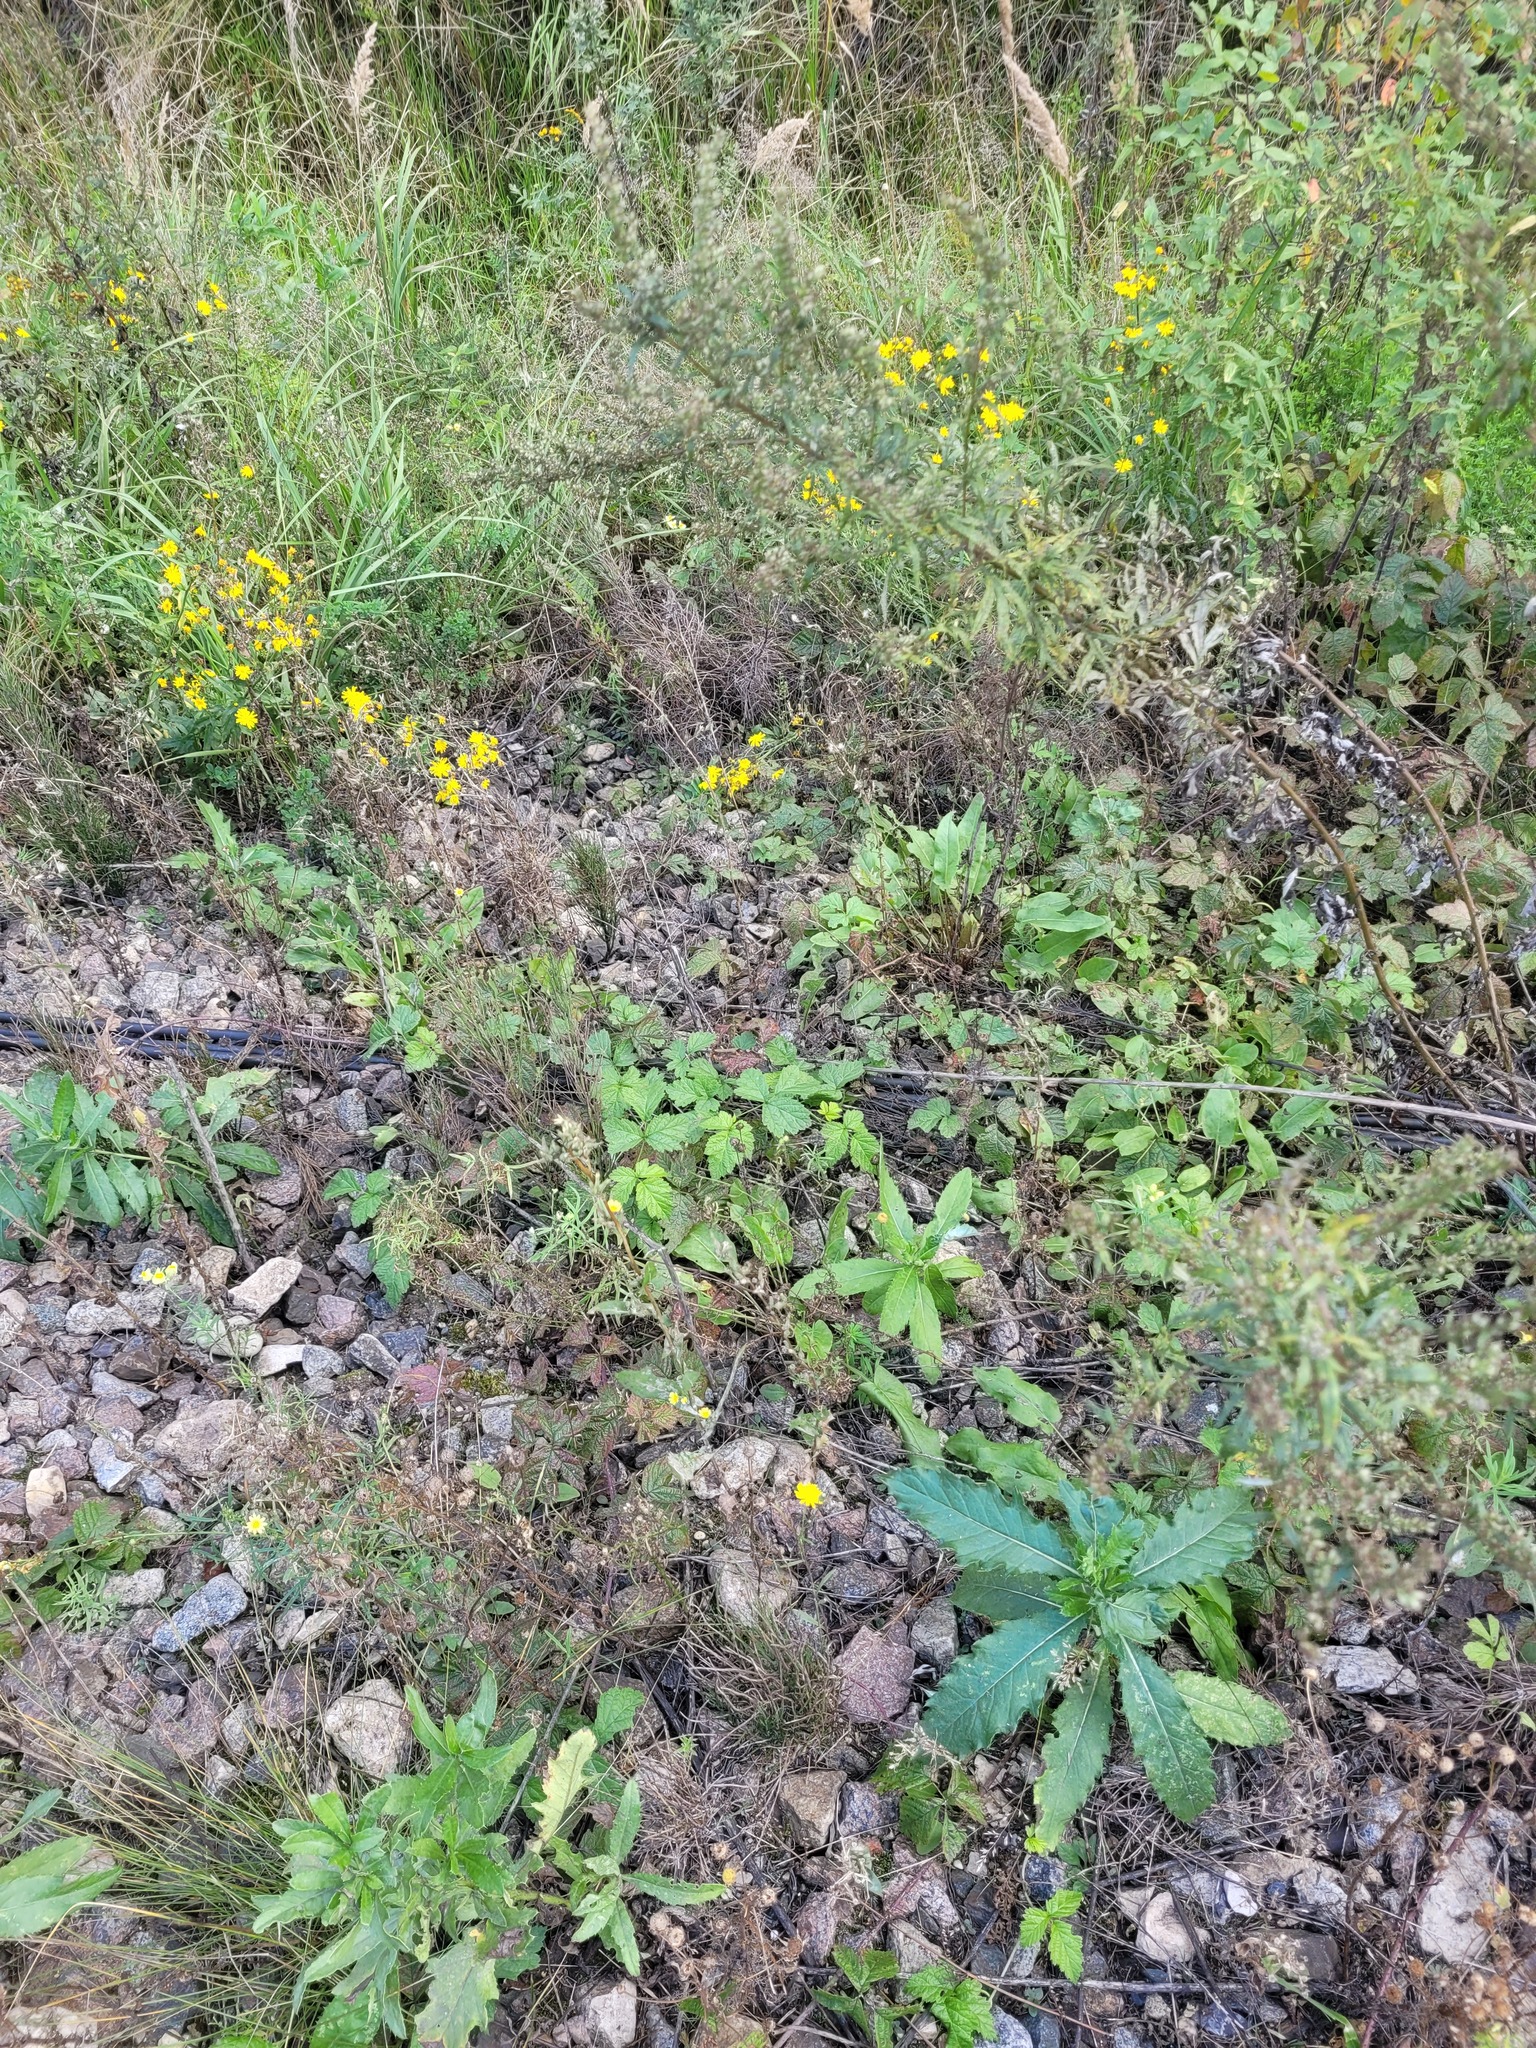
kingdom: Plantae
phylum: Tracheophyta
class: Magnoliopsida
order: Rosales
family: Rosaceae
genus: Rubus
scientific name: Rubus caesius
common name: Dewberry
